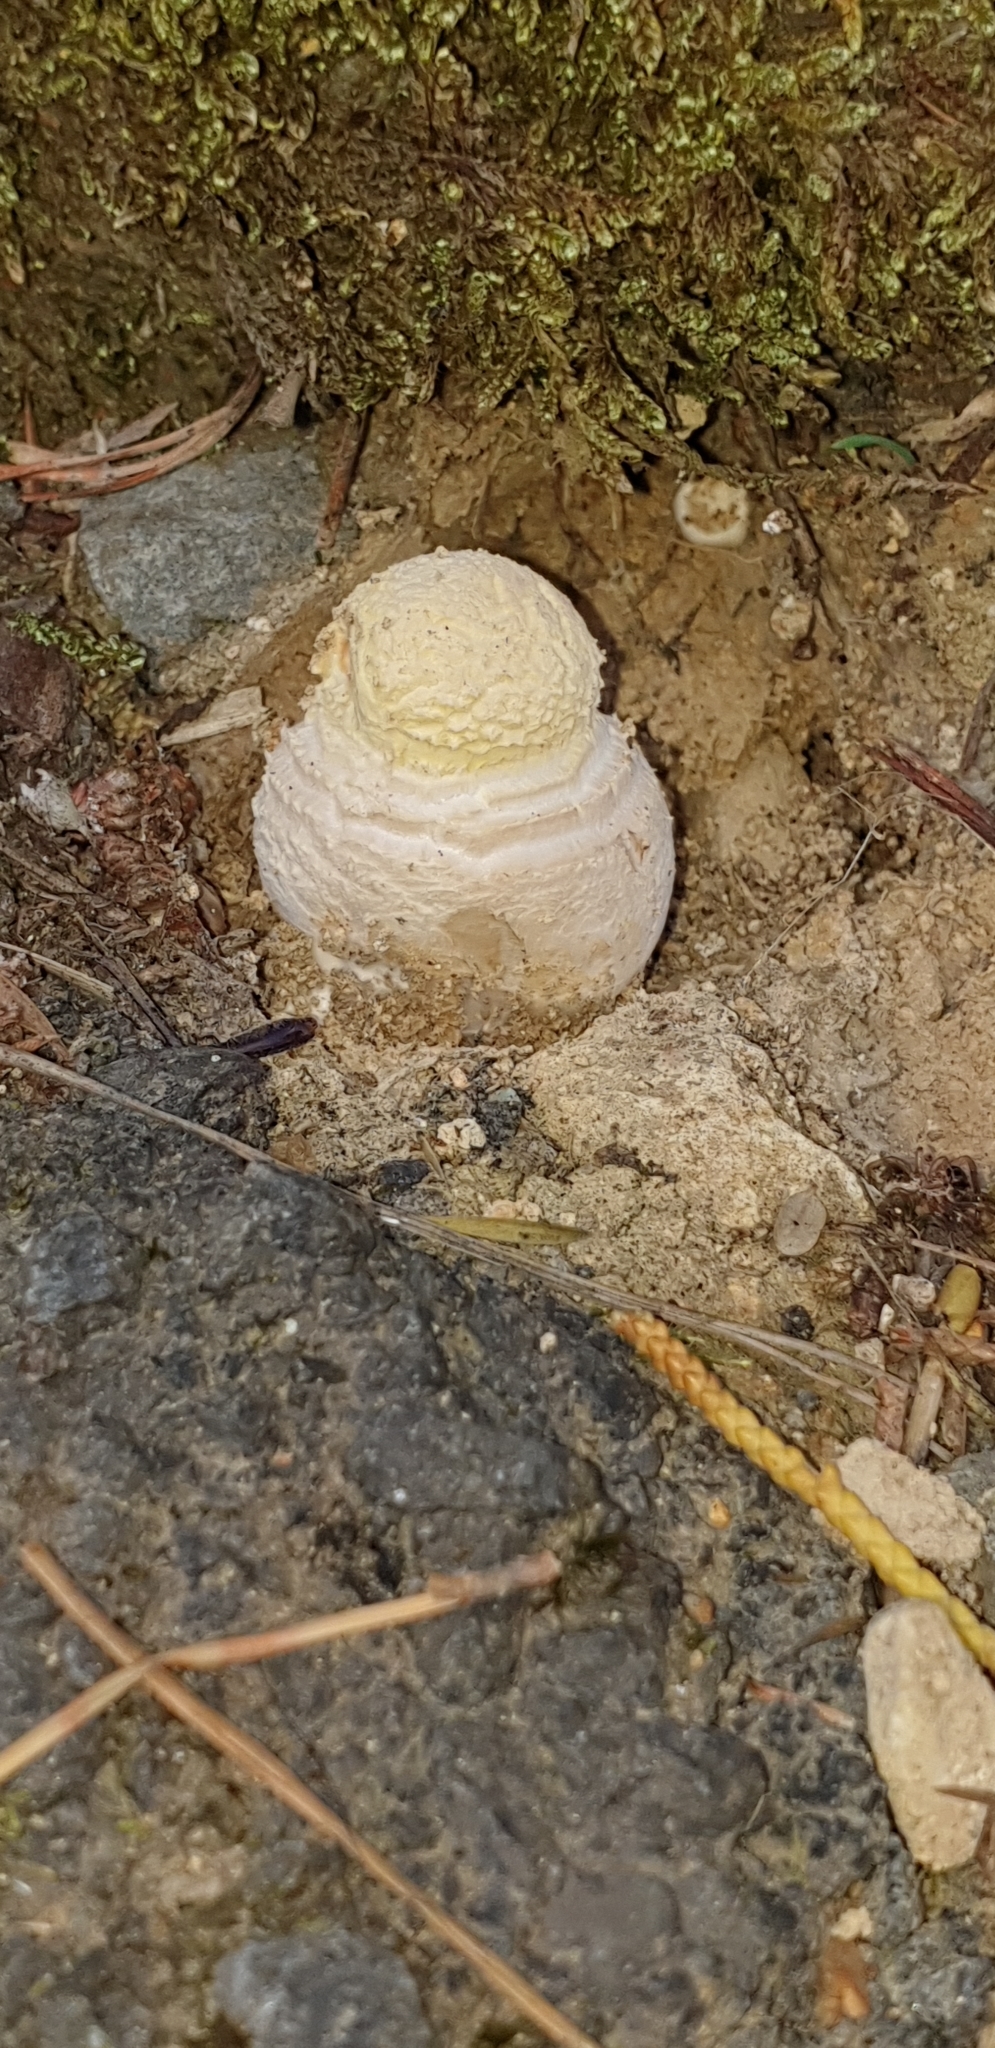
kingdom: Fungi
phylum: Basidiomycota
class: Agaricomycetes
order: Agaricales
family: Amanitaceae
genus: Amanita
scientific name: Amanita muscaria
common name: Fly agaric
